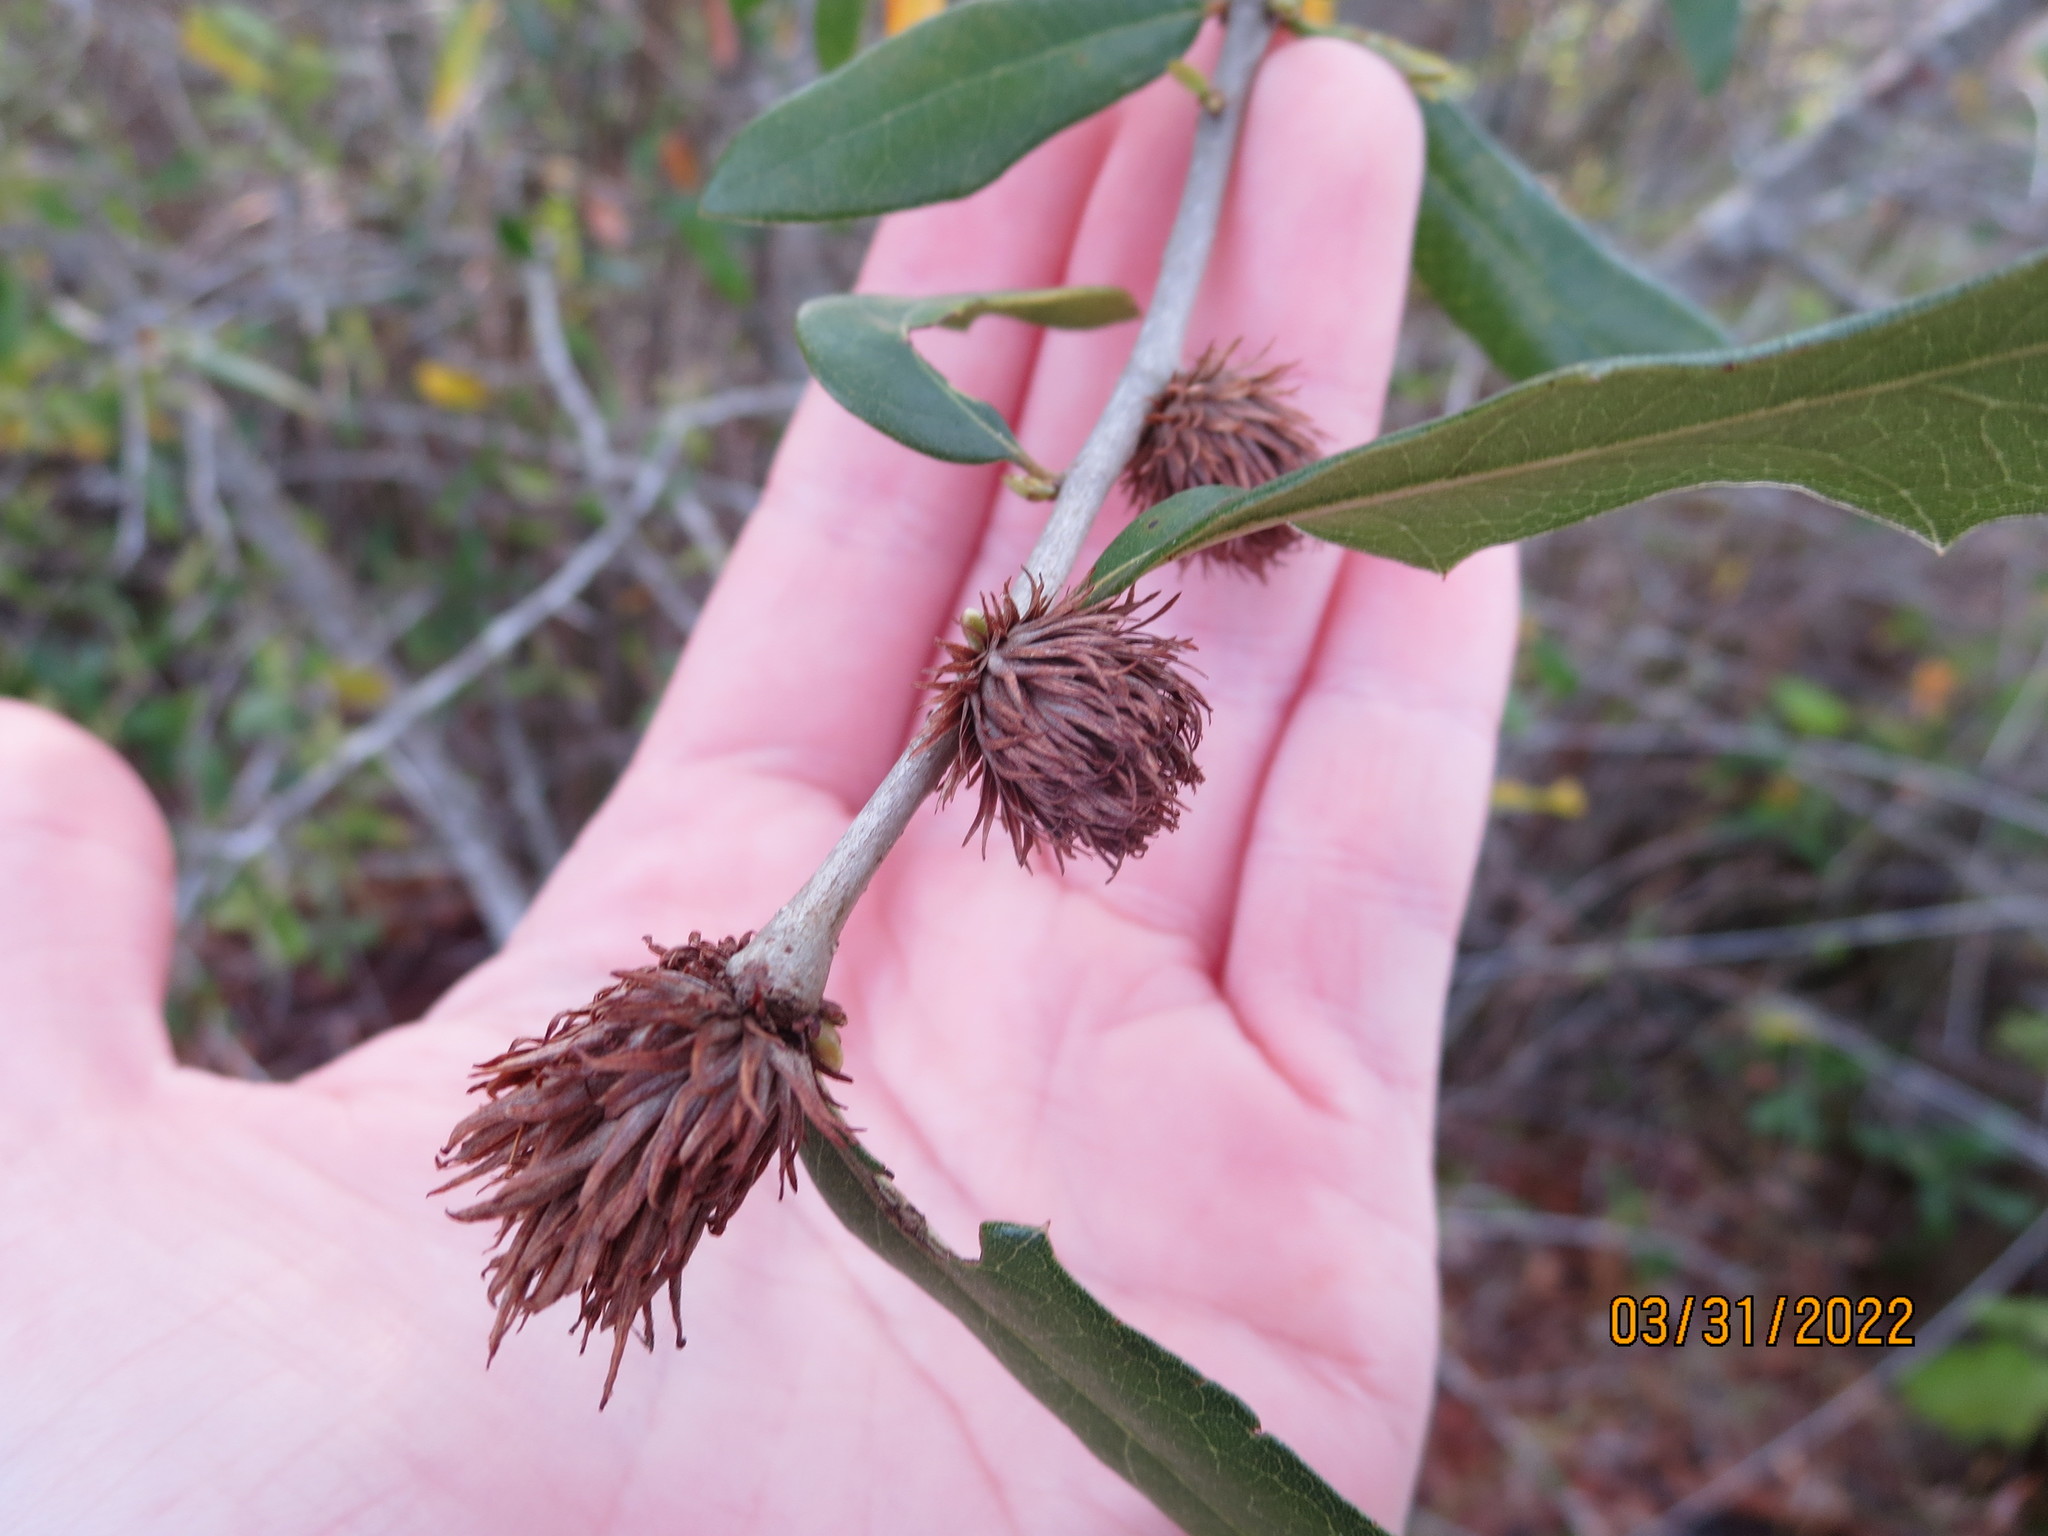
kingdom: Animalia
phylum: Arthropoda
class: Insecta
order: Hymenoptera
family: Cynipidae
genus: Andricus
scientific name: Andricus quercusfoliatus
